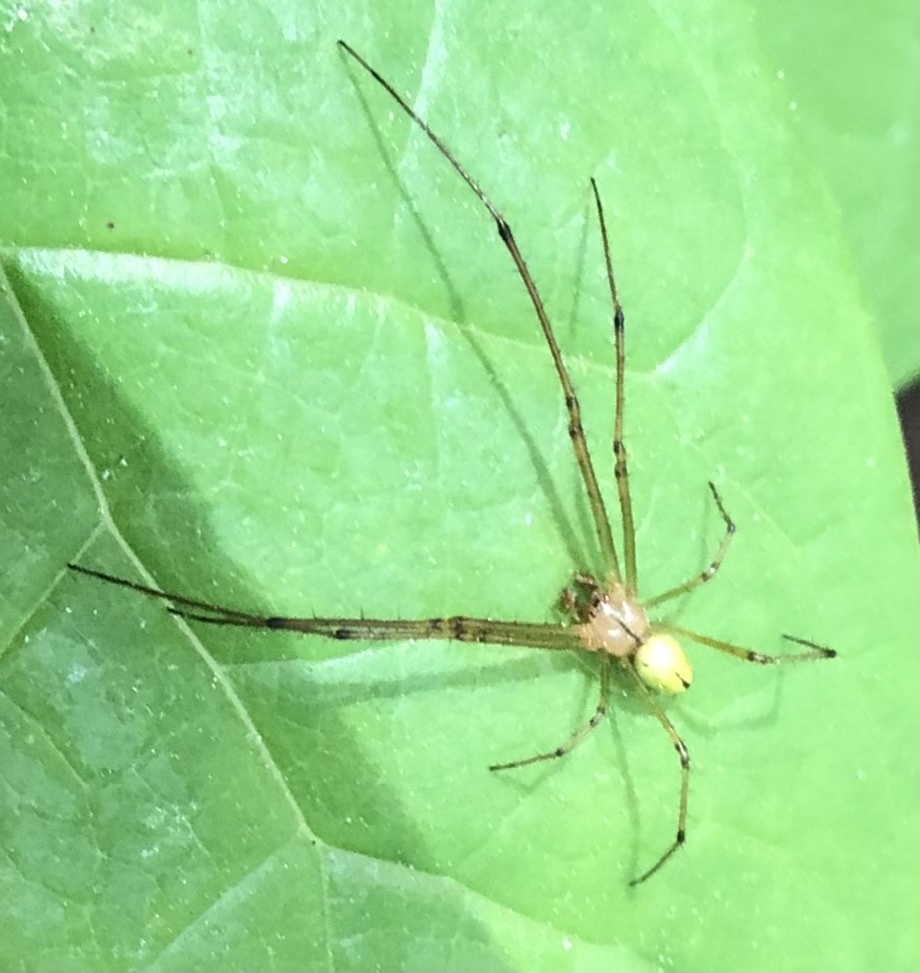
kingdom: Animalia
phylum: Arthropoda
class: Arachnida
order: Araneae
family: Tetragnathidae
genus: Leucauge
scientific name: Leucauge venusta
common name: Longjawed orb weavers
